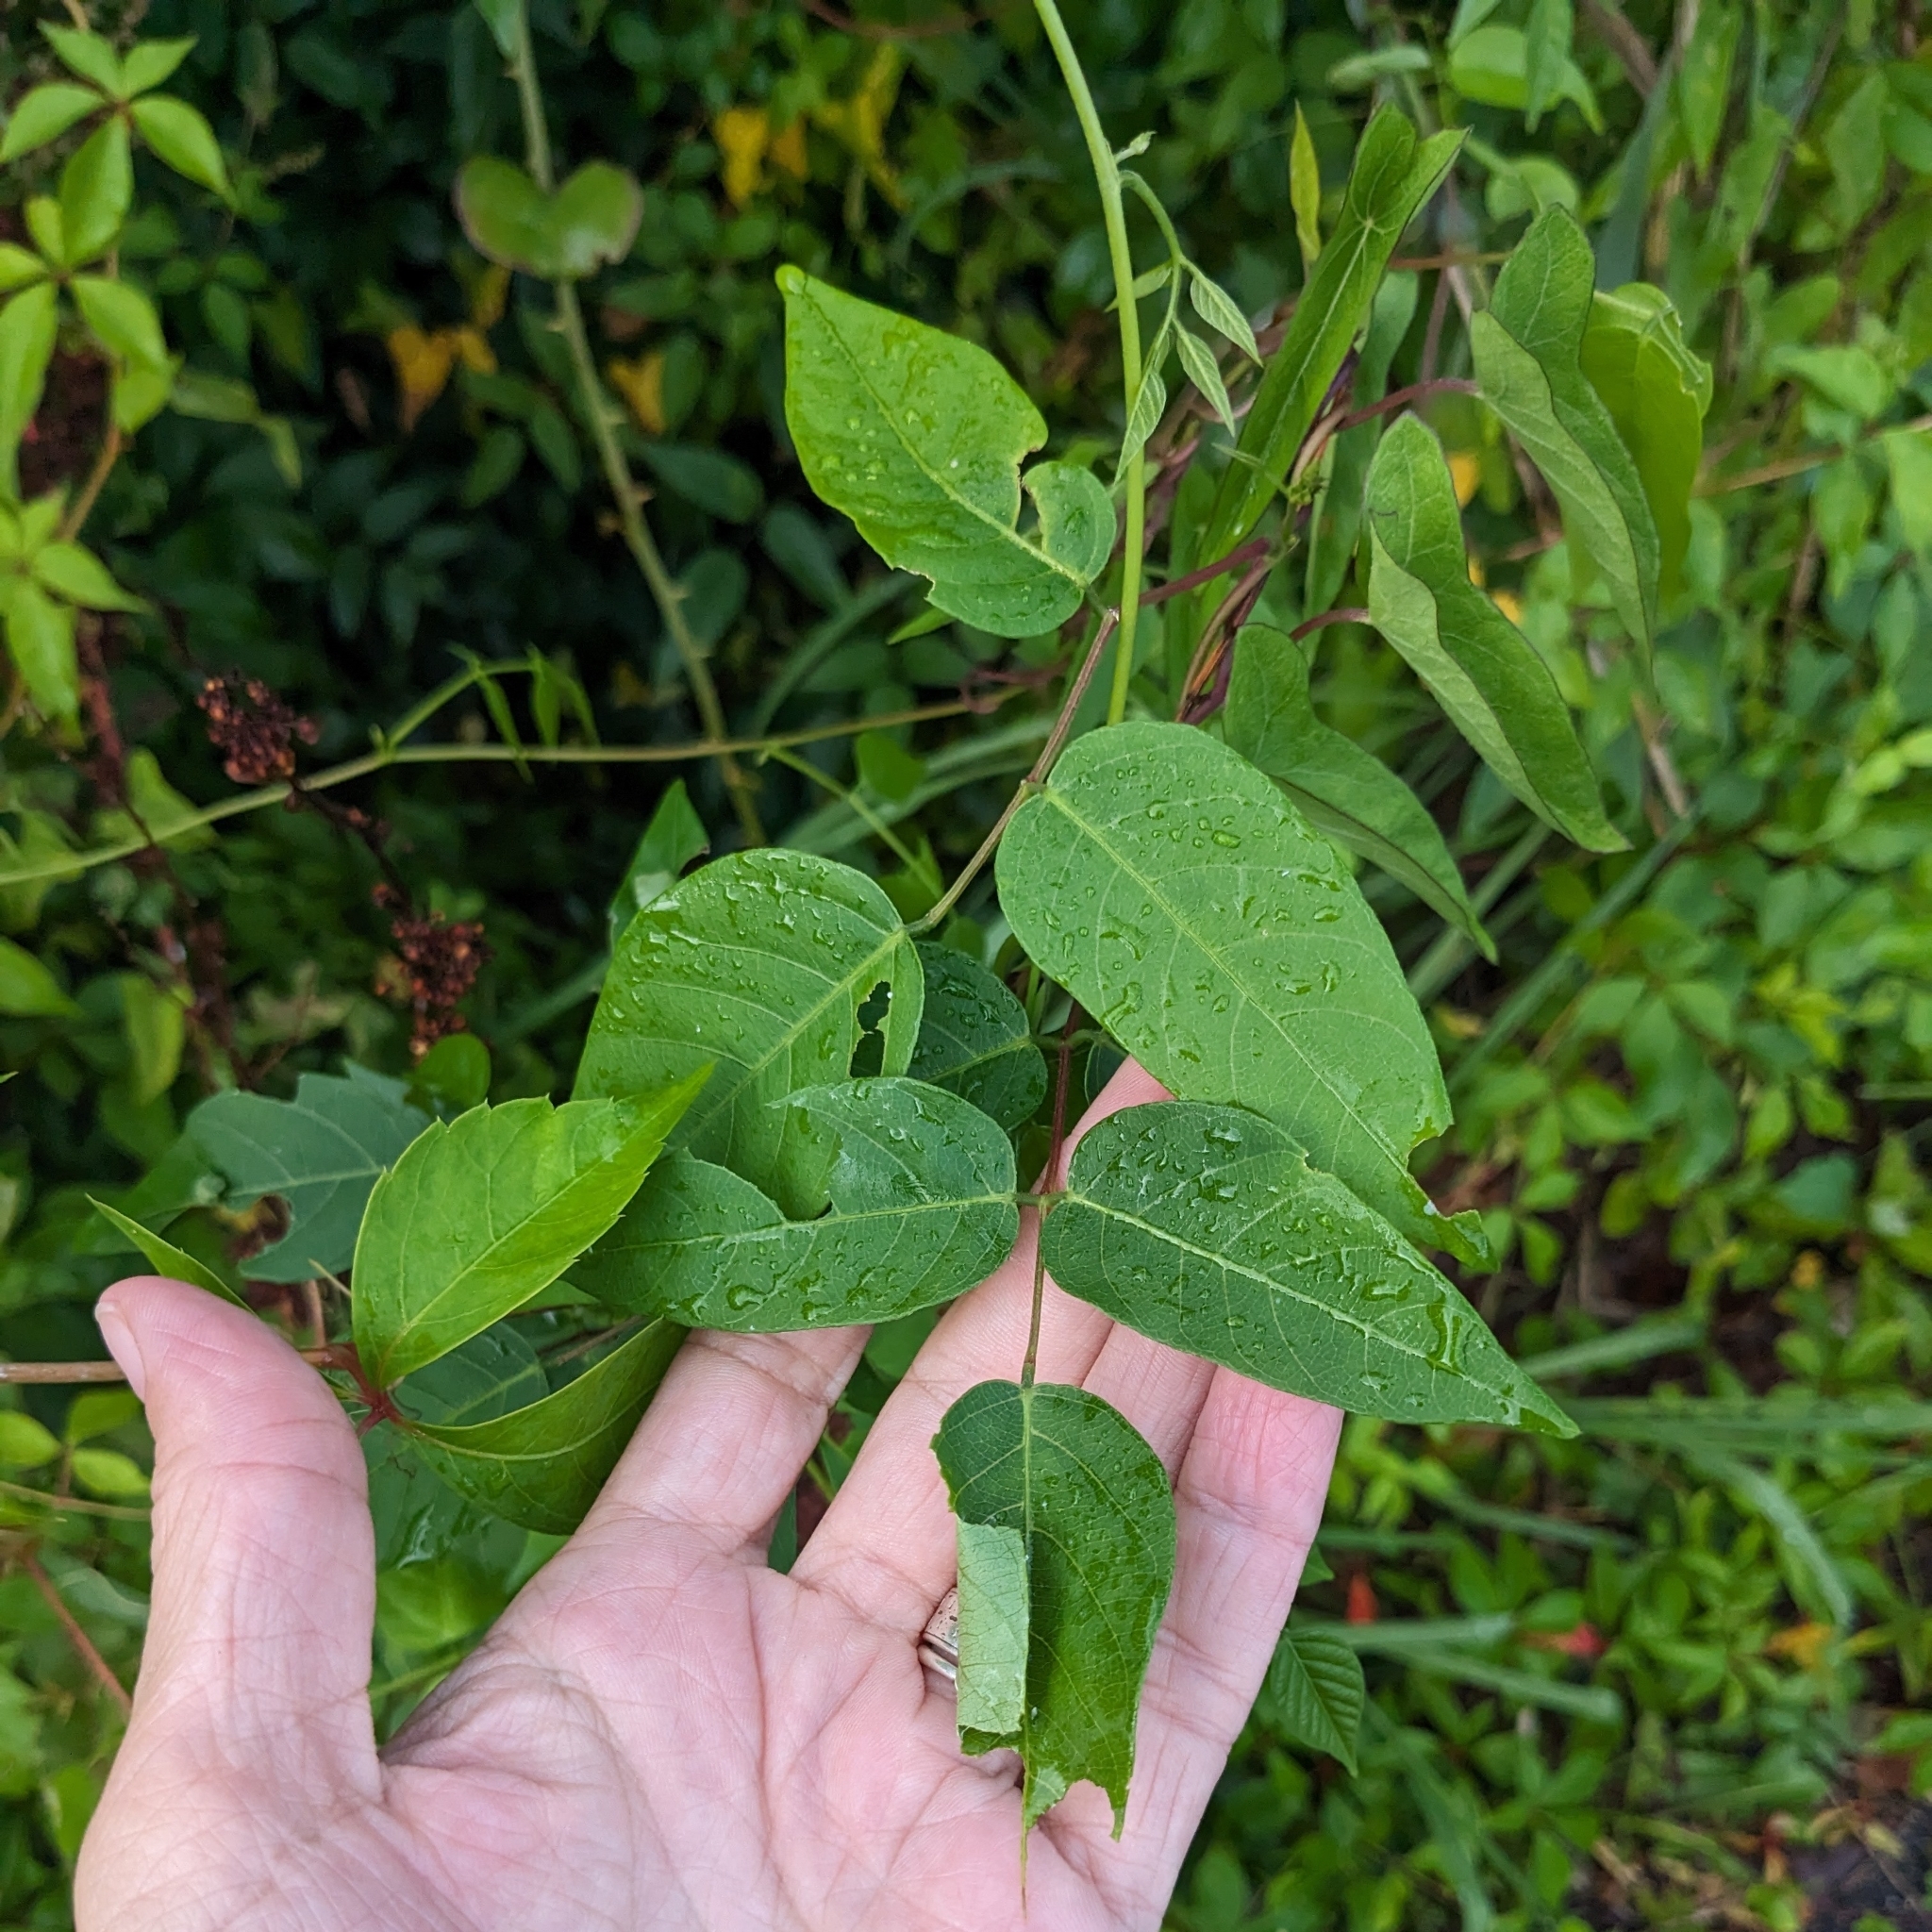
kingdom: Animalia
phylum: Arthropoda
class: Insecta
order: Lepidoptera
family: Hesperiidae
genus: Epargyreus
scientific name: Epargyreus clarus
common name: Silver-spotted skipper
